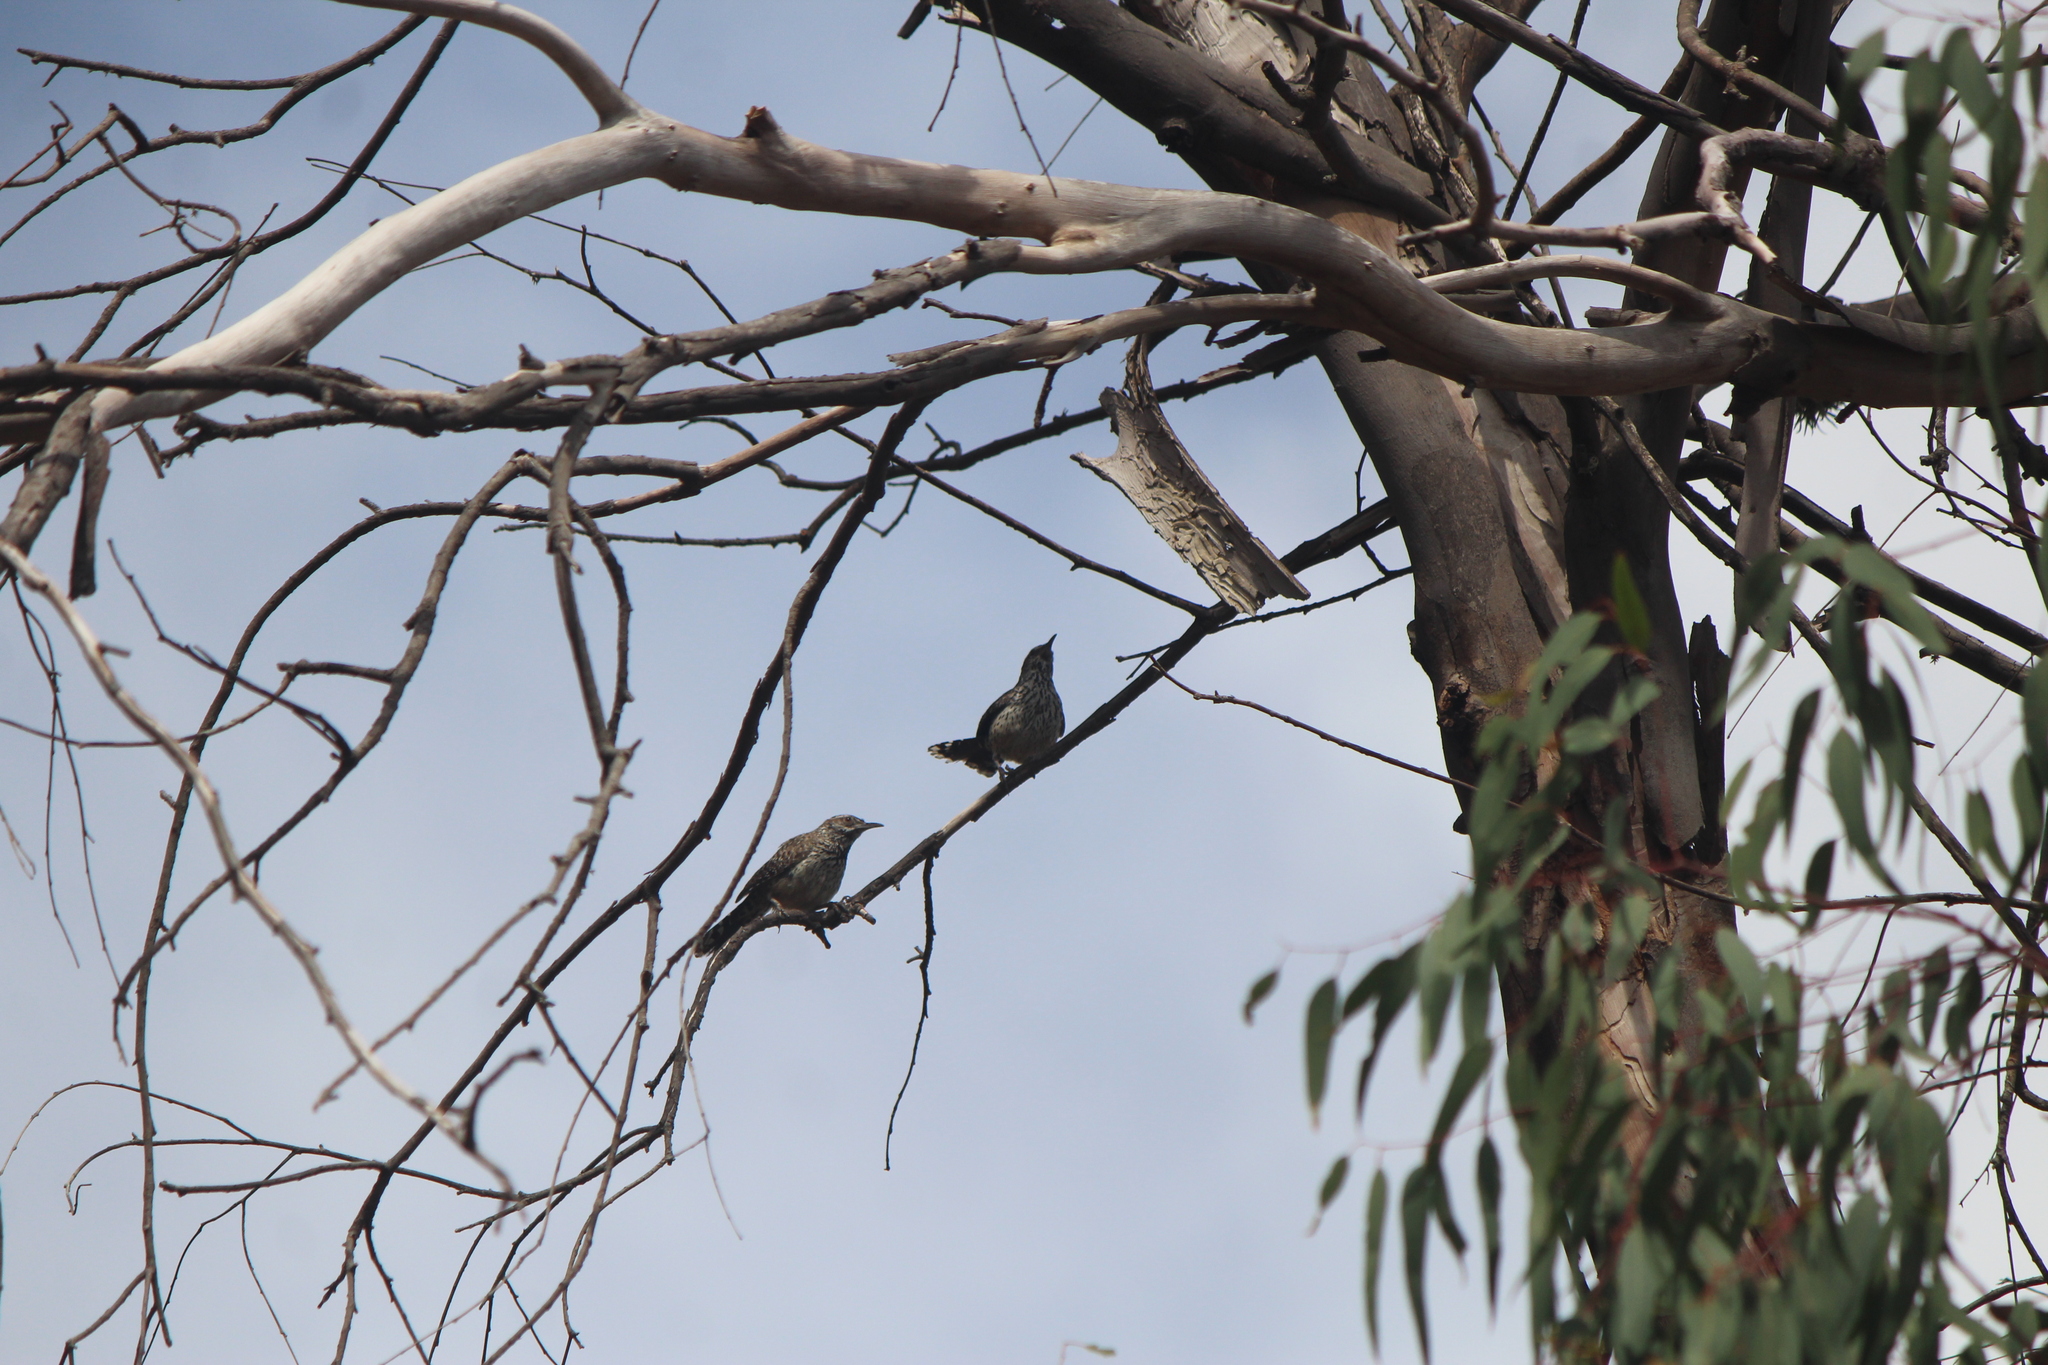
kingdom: Animalia
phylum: Chordata
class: Aves
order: Passeriformes
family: Troglodytidae
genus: Campylorhynchus
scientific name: Campylorhynchus brunneicapillus
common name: Cactus wren
